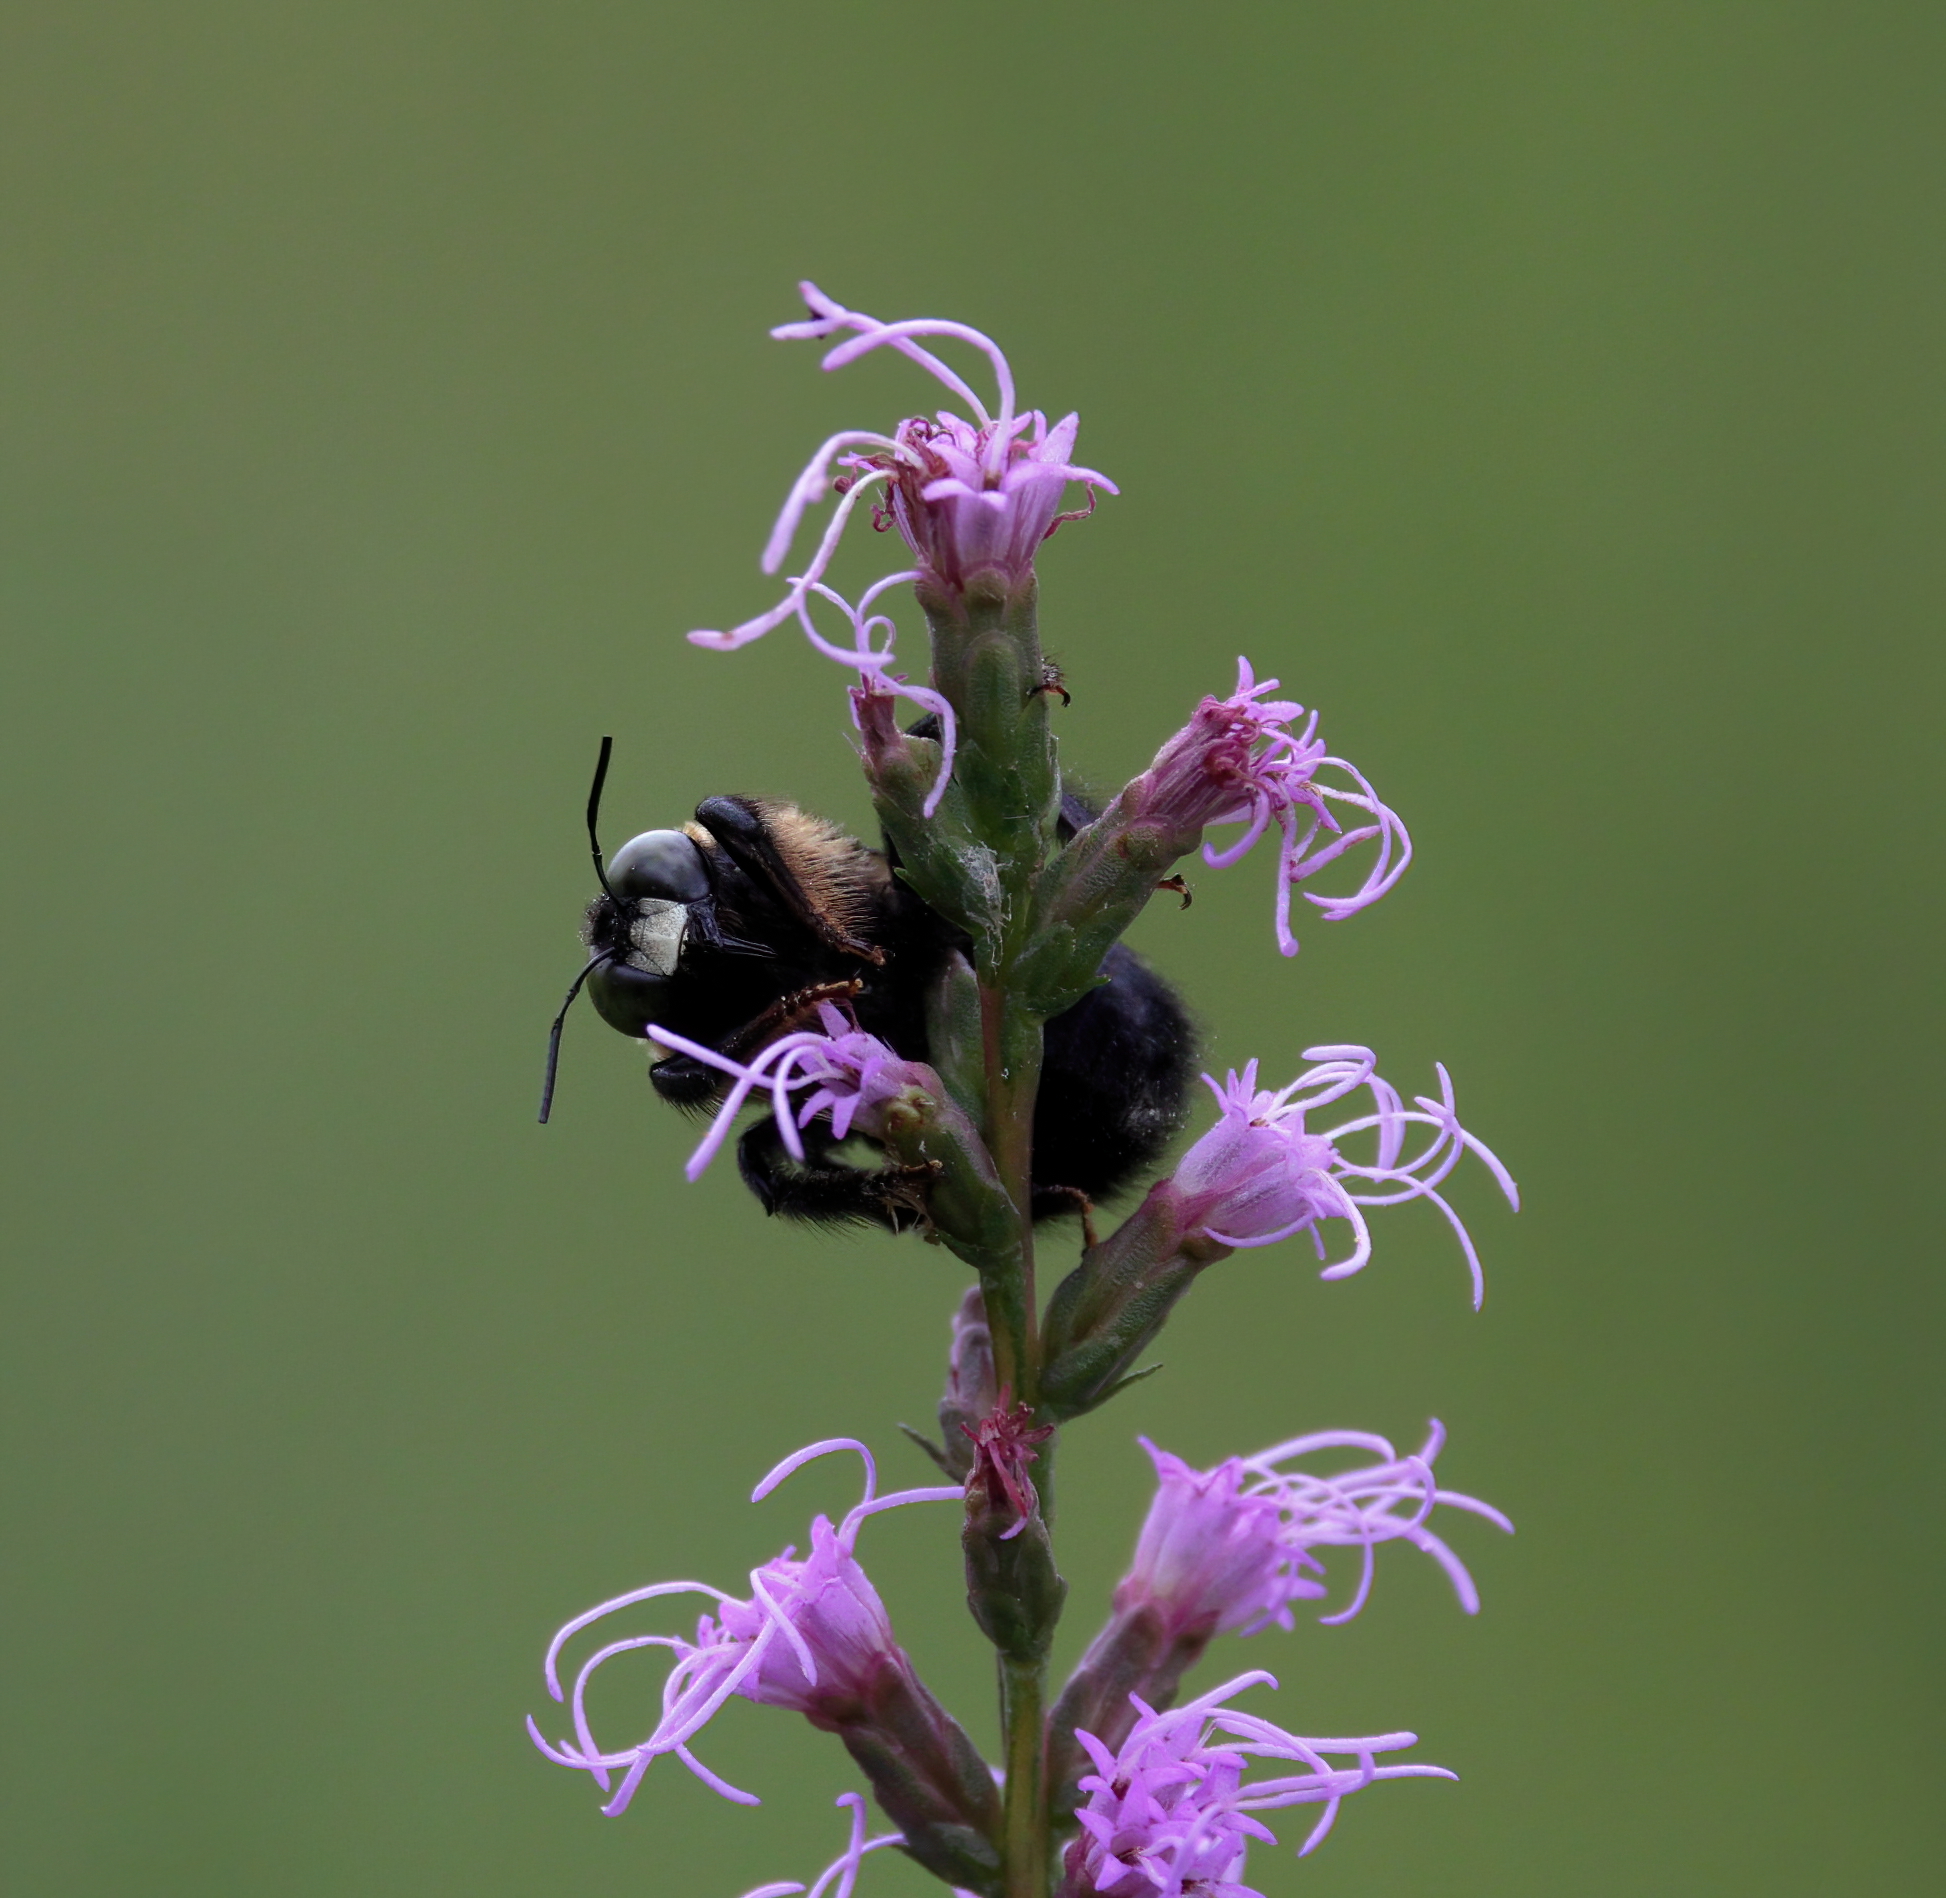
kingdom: Animalia
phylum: Arthropoda
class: Insecta
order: Hymenoptera
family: Apidae
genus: Xylocopa
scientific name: Xylocopa virginica
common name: Carpenter bee
